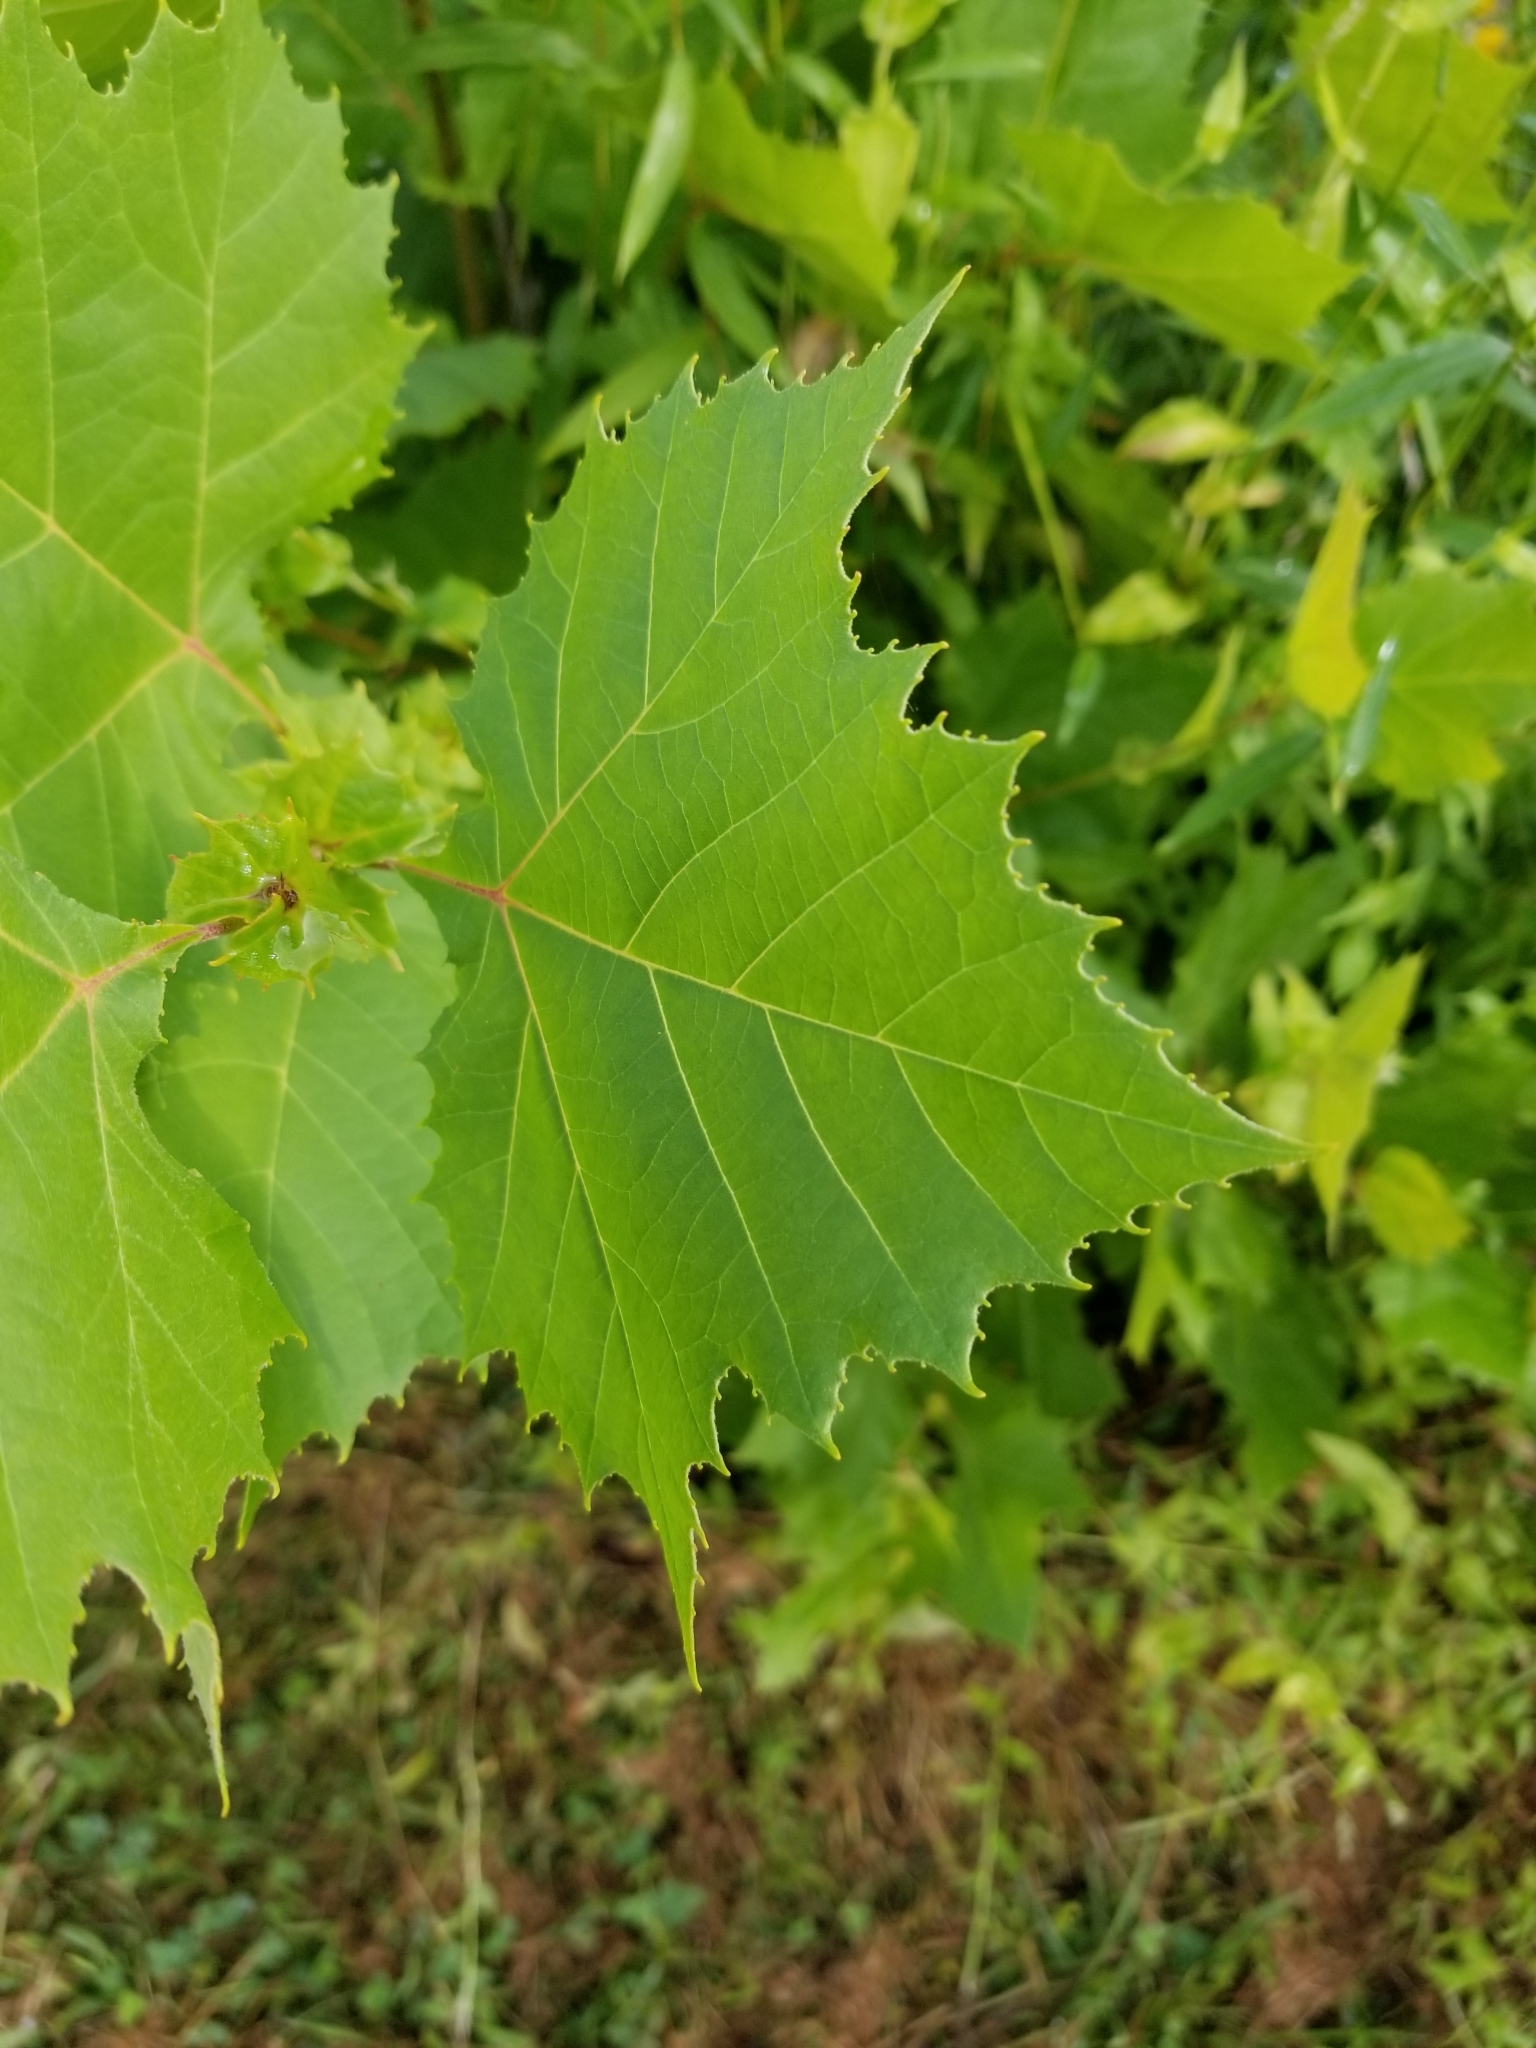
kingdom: Plantae
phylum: Tracheophyta
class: Magnoliopsida
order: Proteales
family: Platanaceae
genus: Platanus
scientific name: Platanus occidentalis
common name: American sycamore
